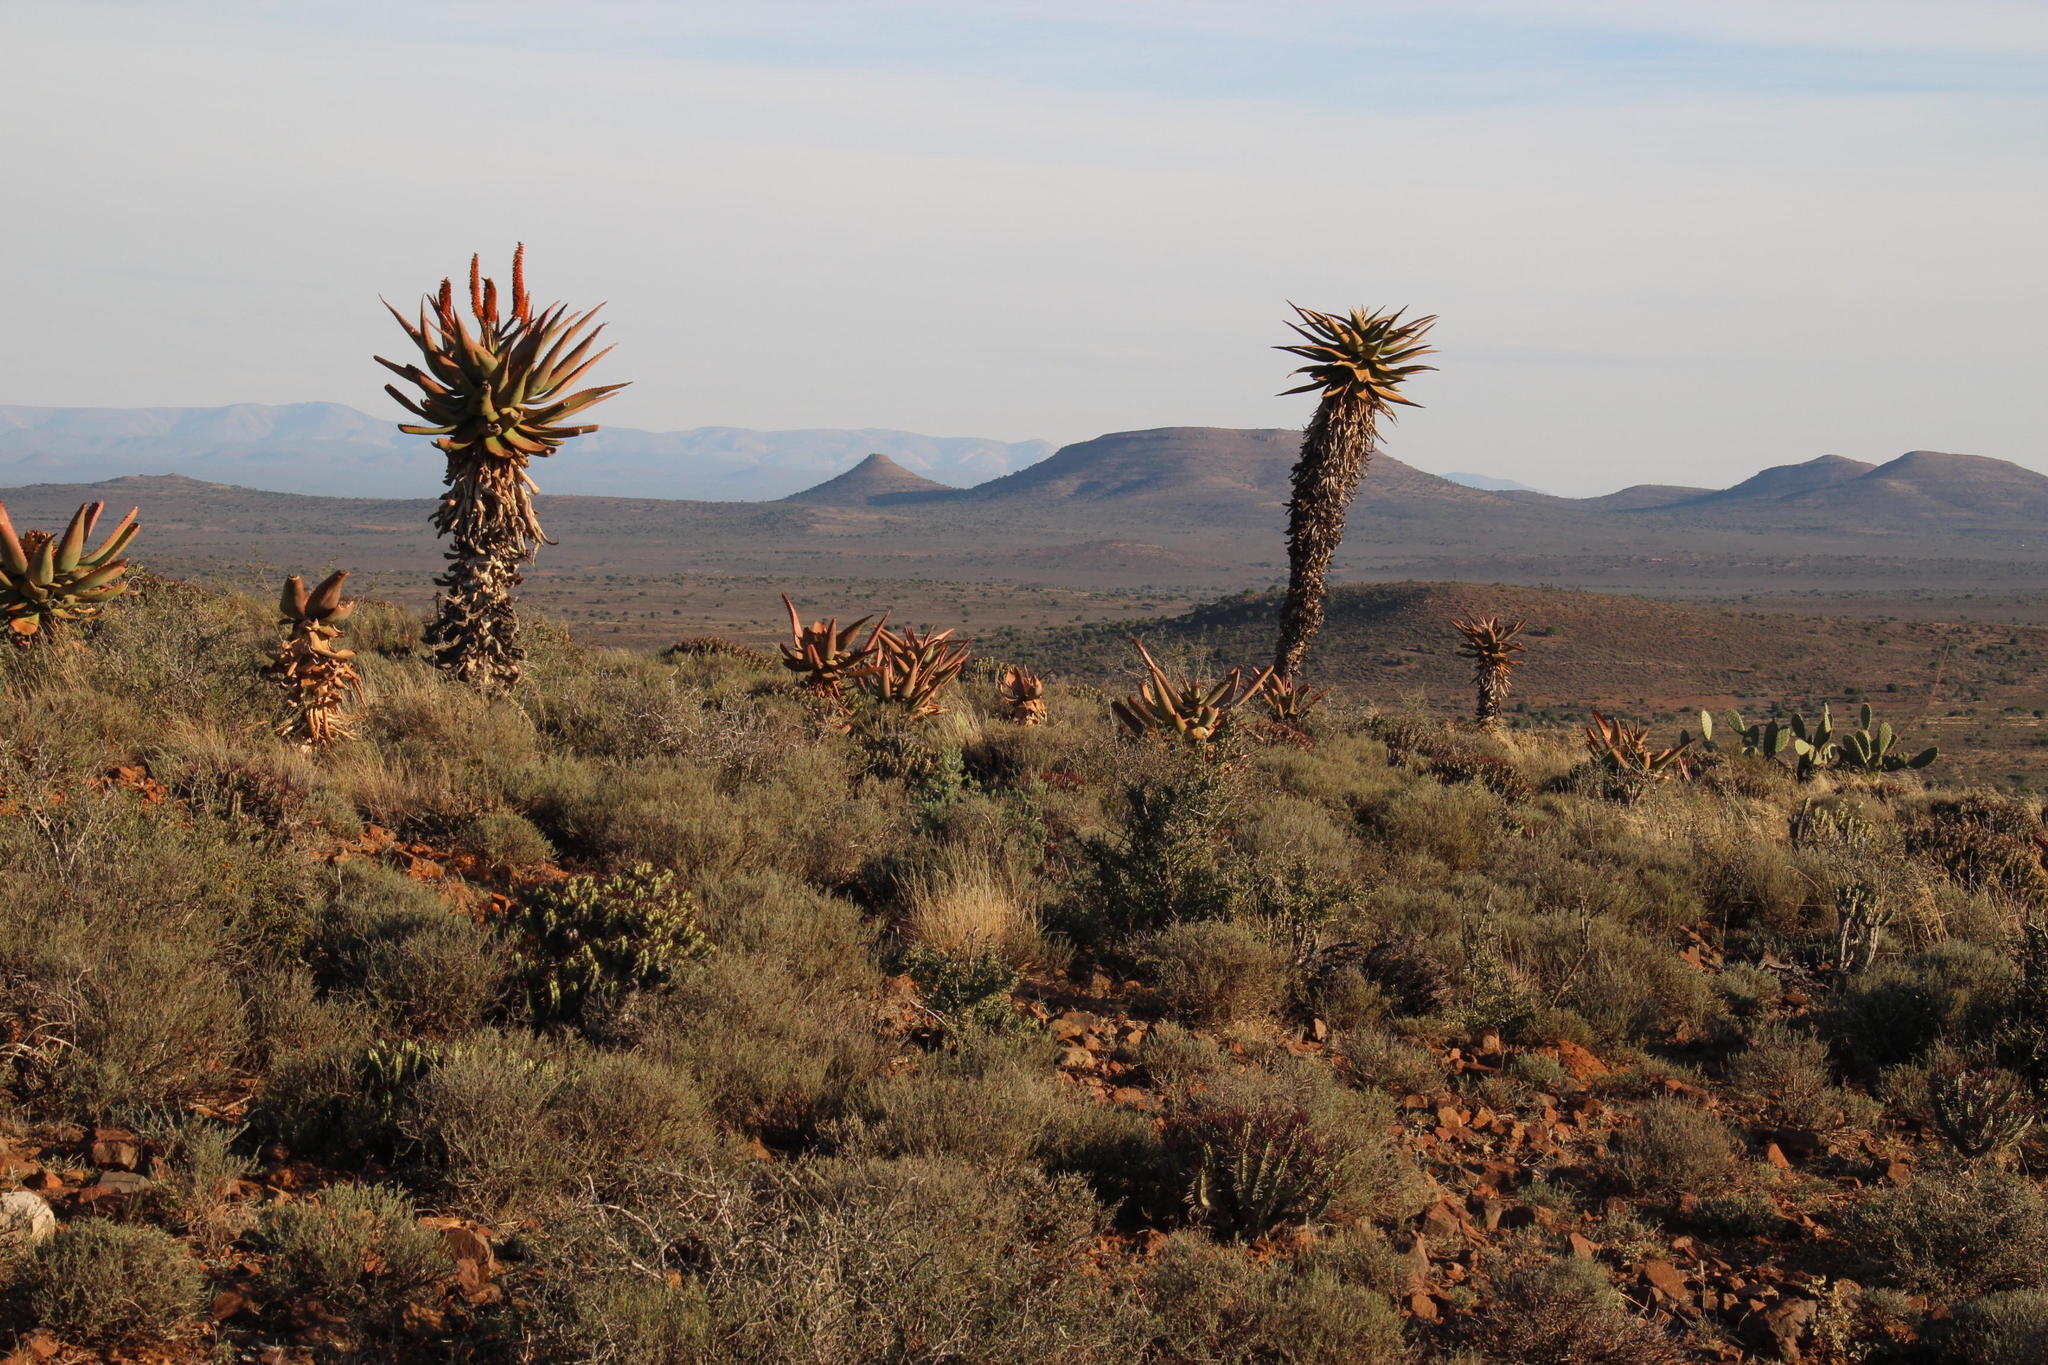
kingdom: Plantae
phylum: Tracheophyta
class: Liliopsida
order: Asparagales
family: Asphodelaceae
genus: Aloe
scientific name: Aloe ferox
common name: Bitter aloe
